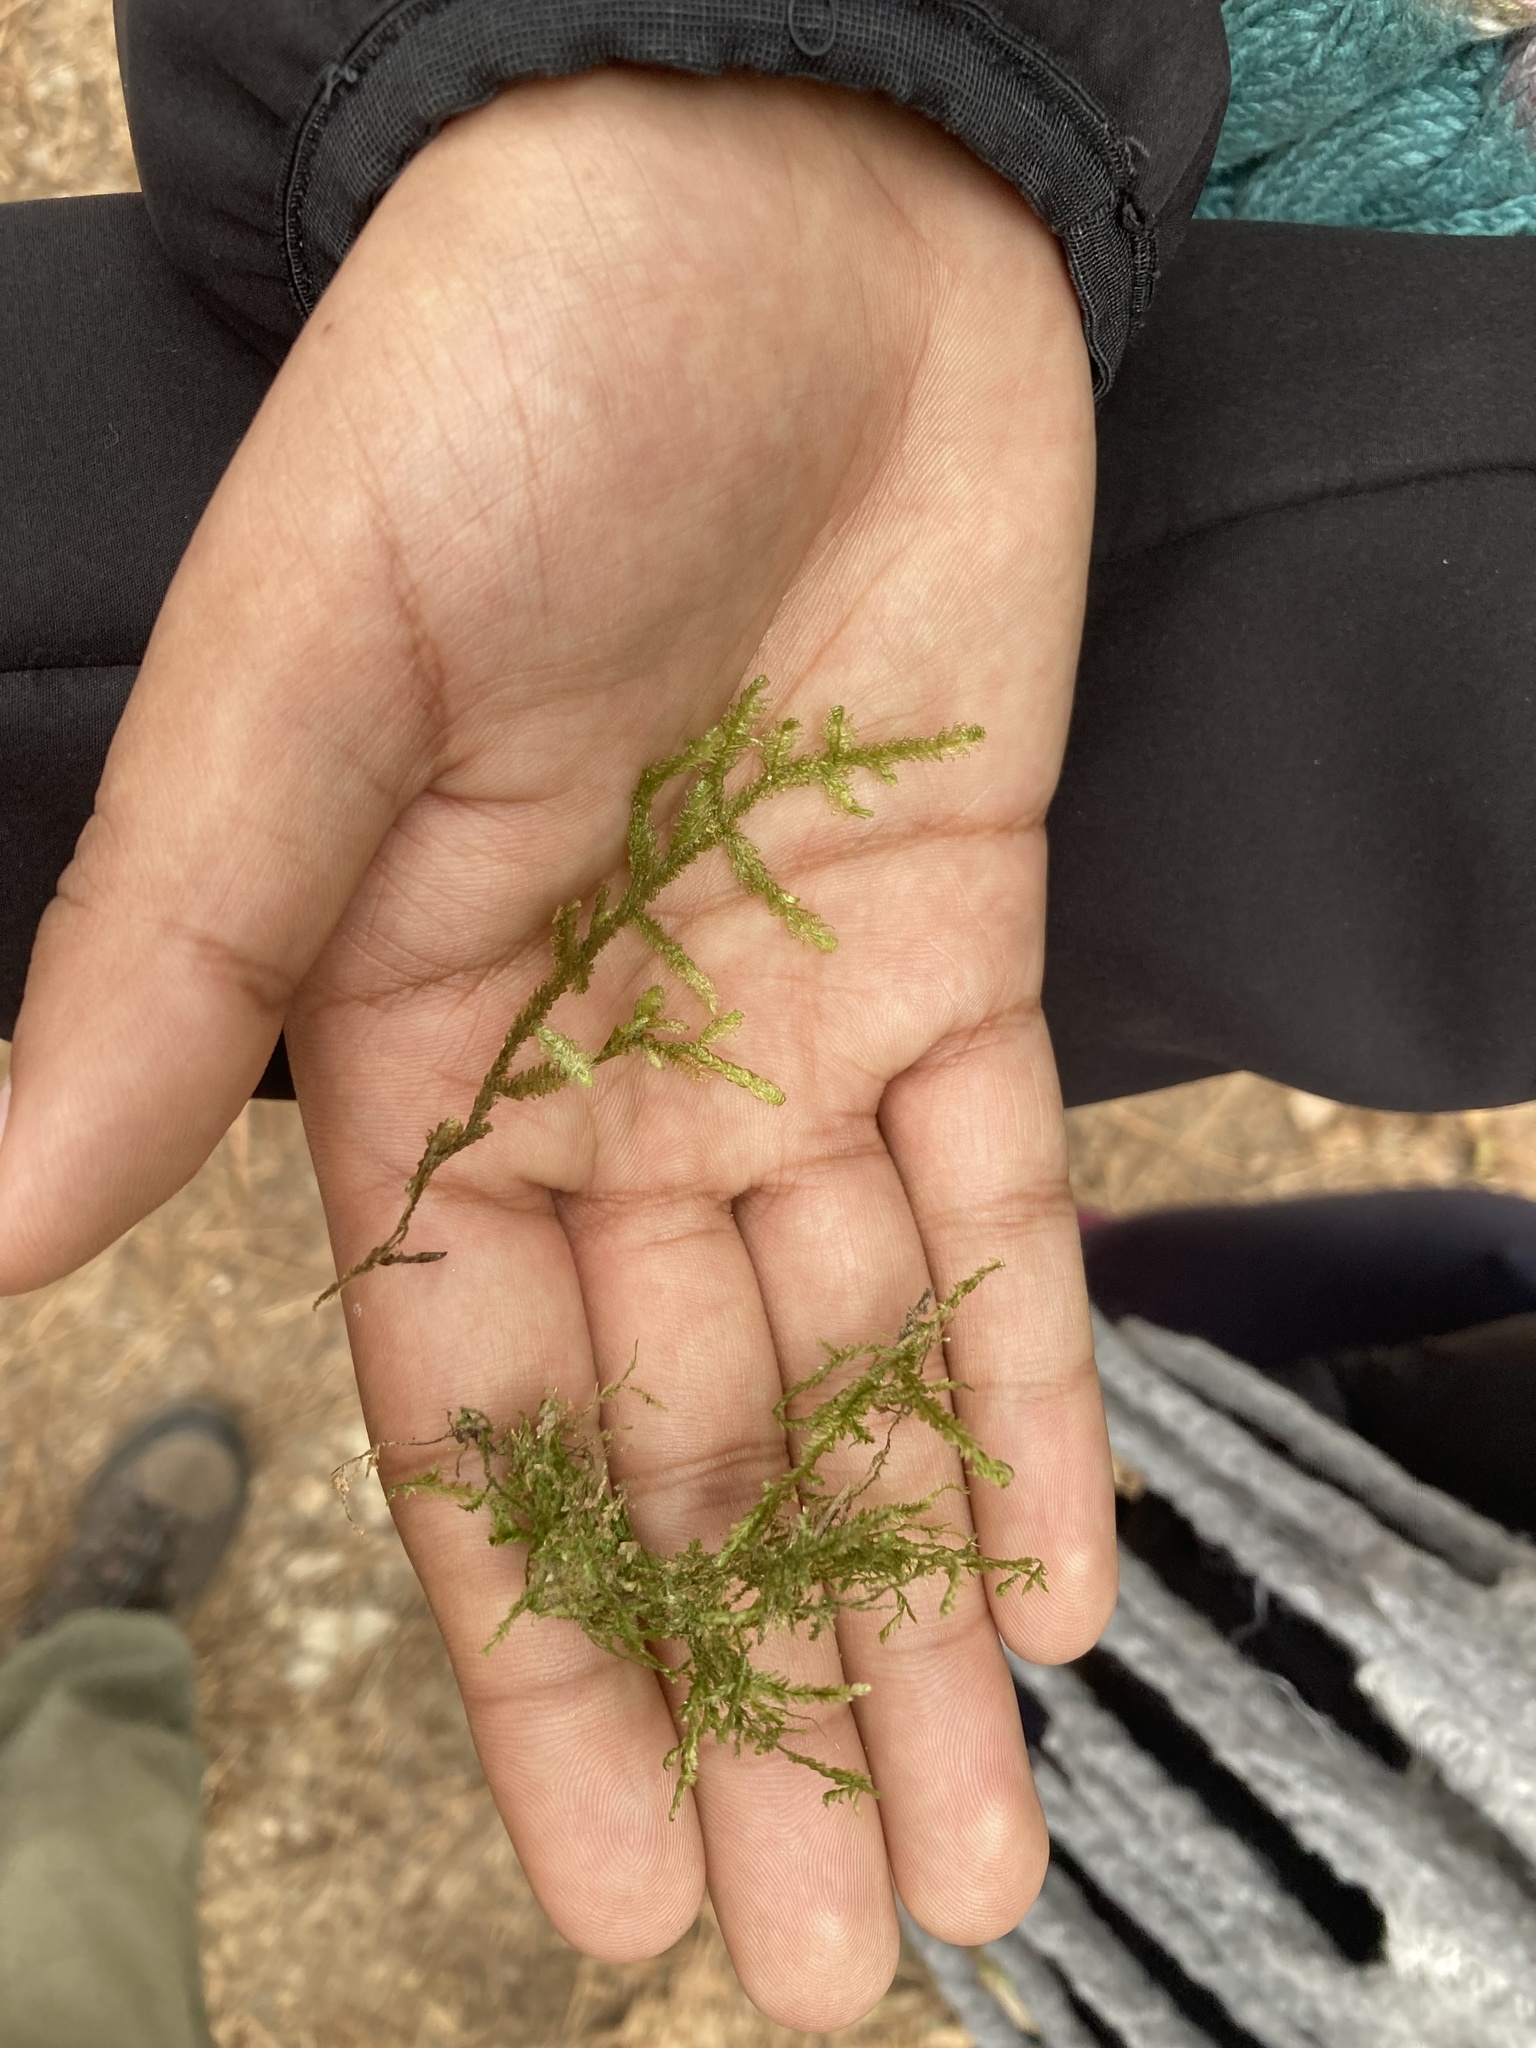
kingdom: Plantae
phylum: Bryophyta
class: Bryopsida
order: Hypnales
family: Neckeraceae
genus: Exsertotheca
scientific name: Exsertotheca crispa
